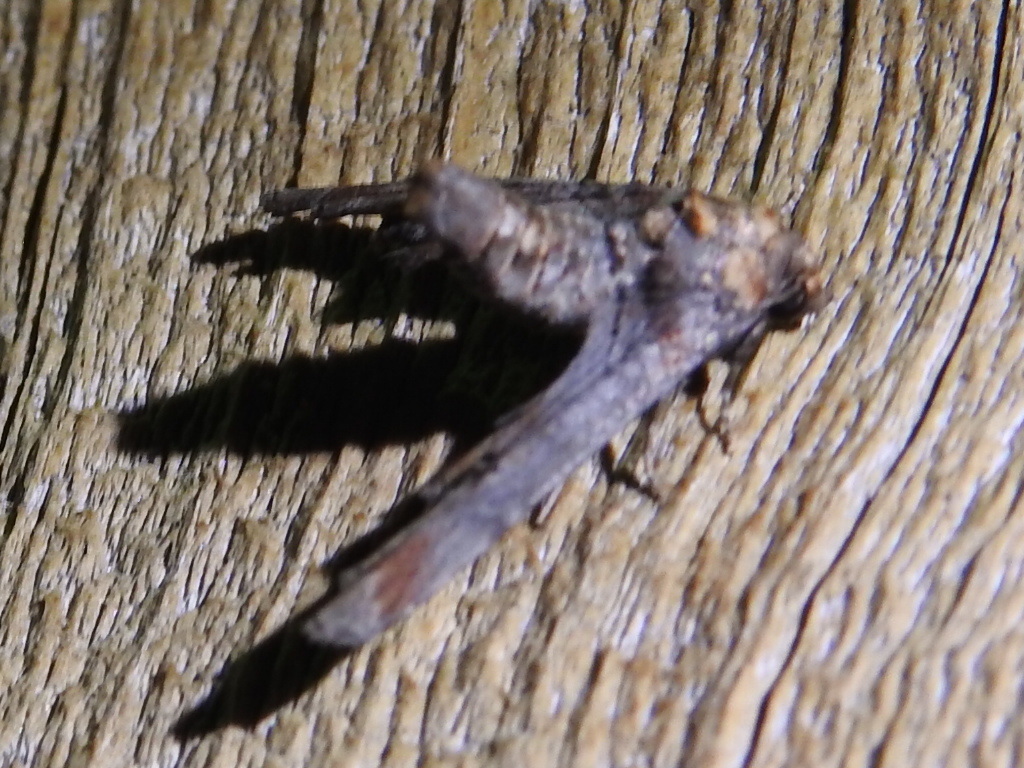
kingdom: Animalia
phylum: Arthropoda
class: Insecta
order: Lepidoptera
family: Euteliidae
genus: Marathyssa
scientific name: Marathyssa inficita
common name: Dark marathyssa moth
